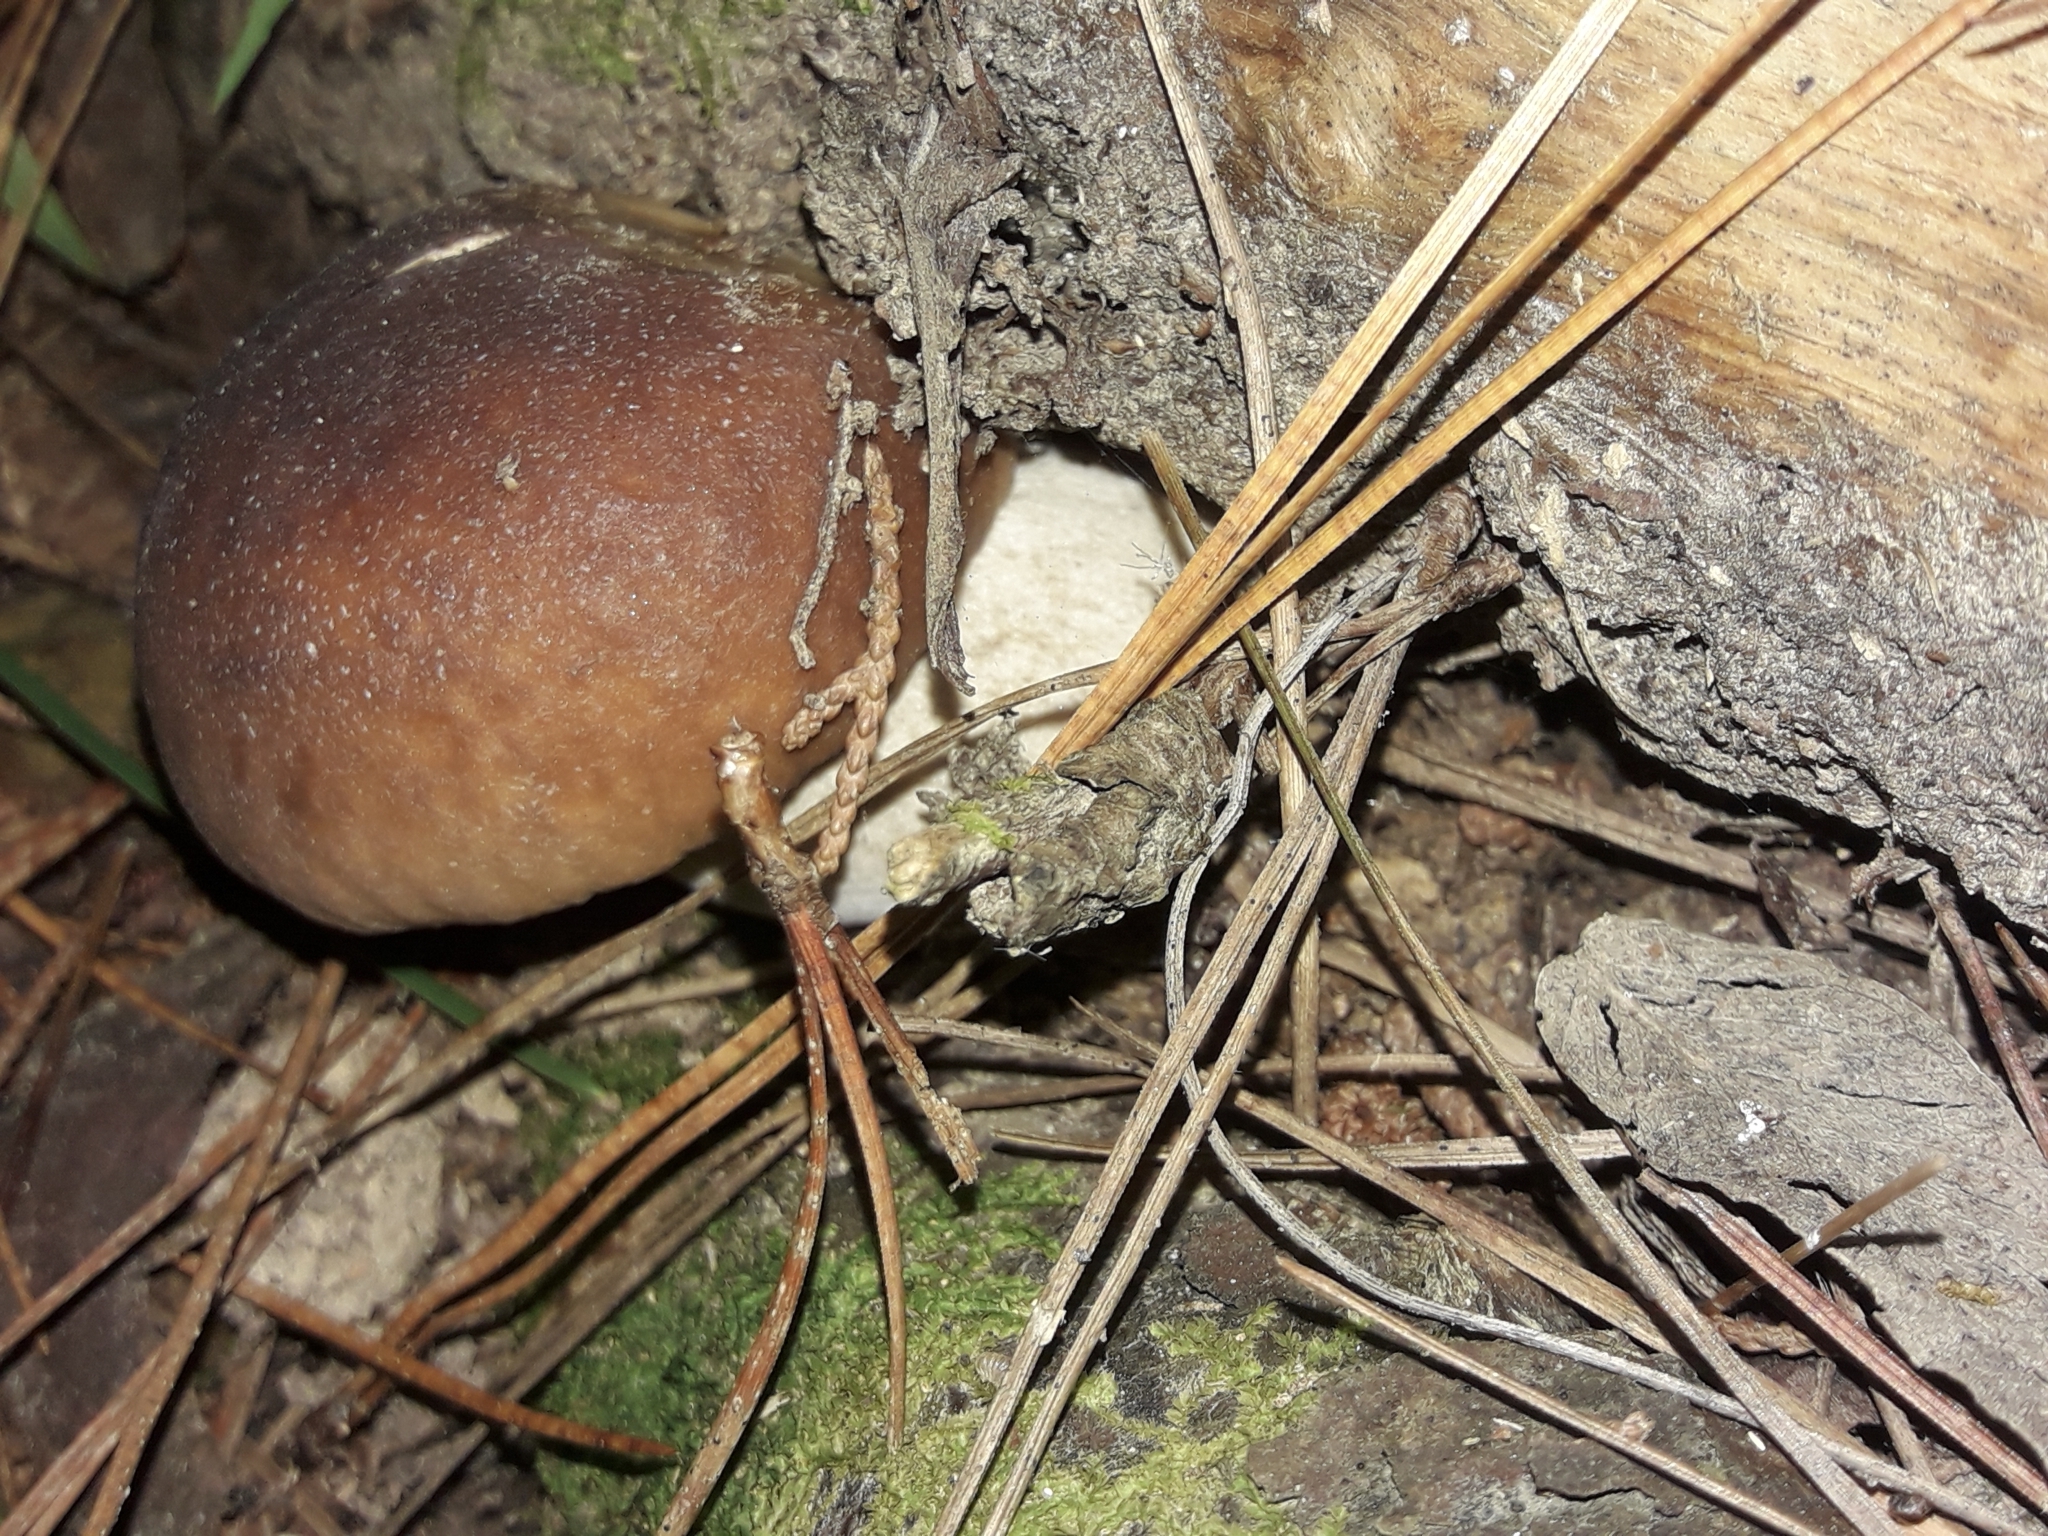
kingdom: Fungi
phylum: Basidiomycota
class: Agaricomycetes
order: Boletales
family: Boletaceae
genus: Boletus
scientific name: Boletus edulis
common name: Cep
